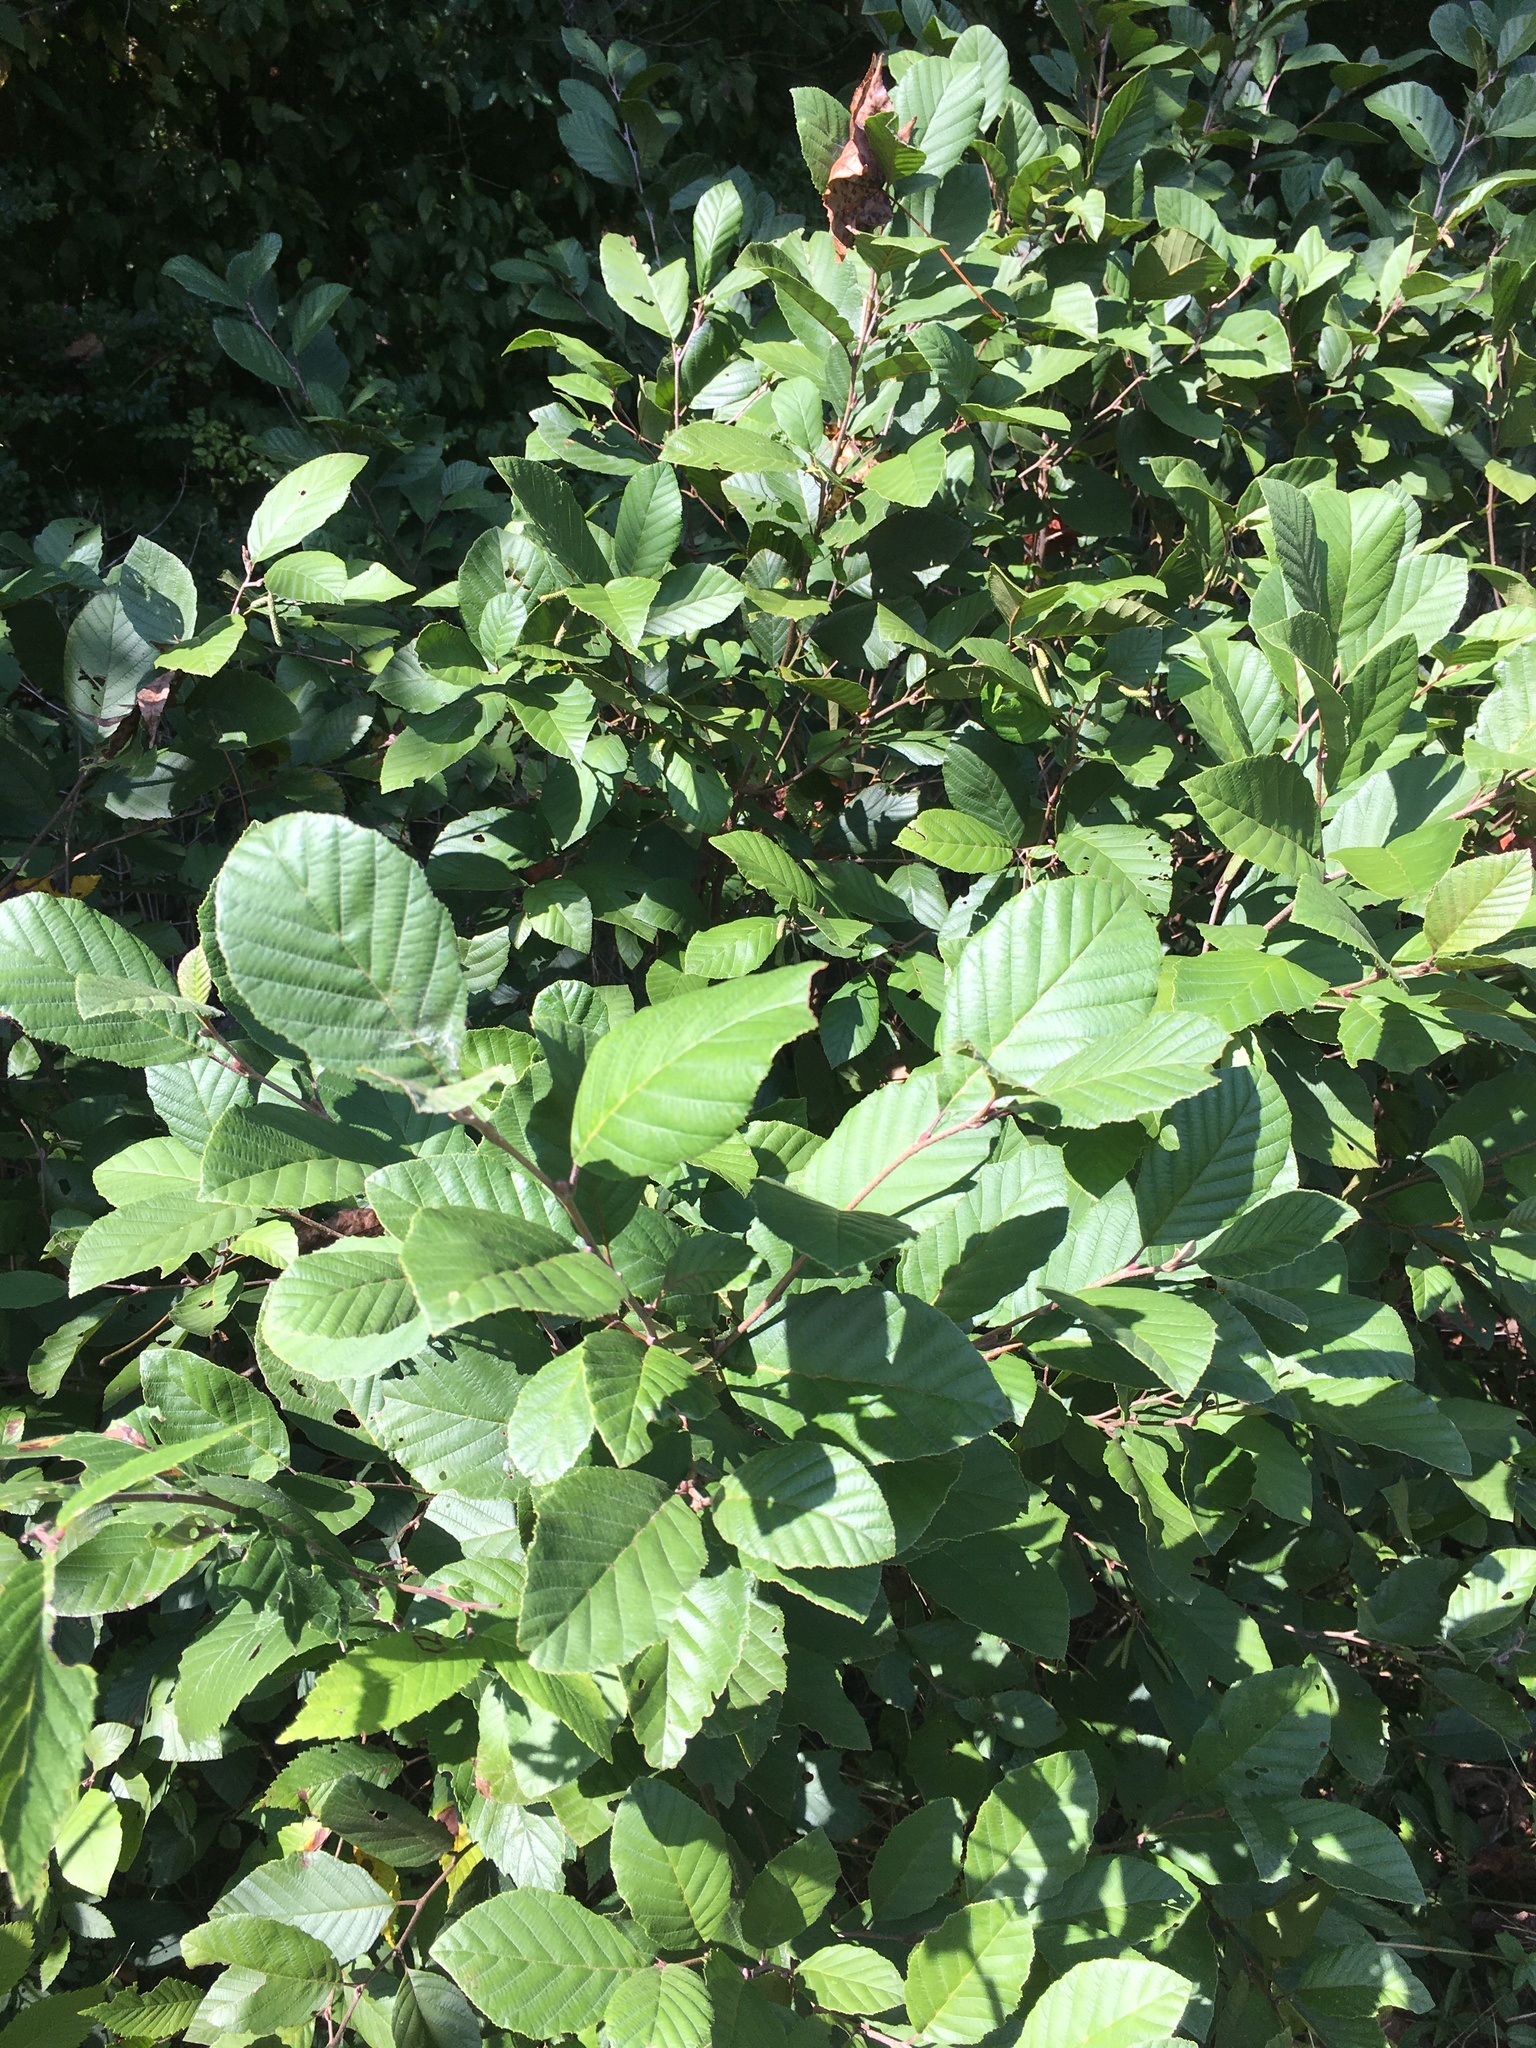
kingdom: Plantae
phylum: Tracheophyta
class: Magnoliopsida
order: Fagales
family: Betulaceae
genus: Alnus
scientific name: Alnus serrulata
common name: Hazel alder
